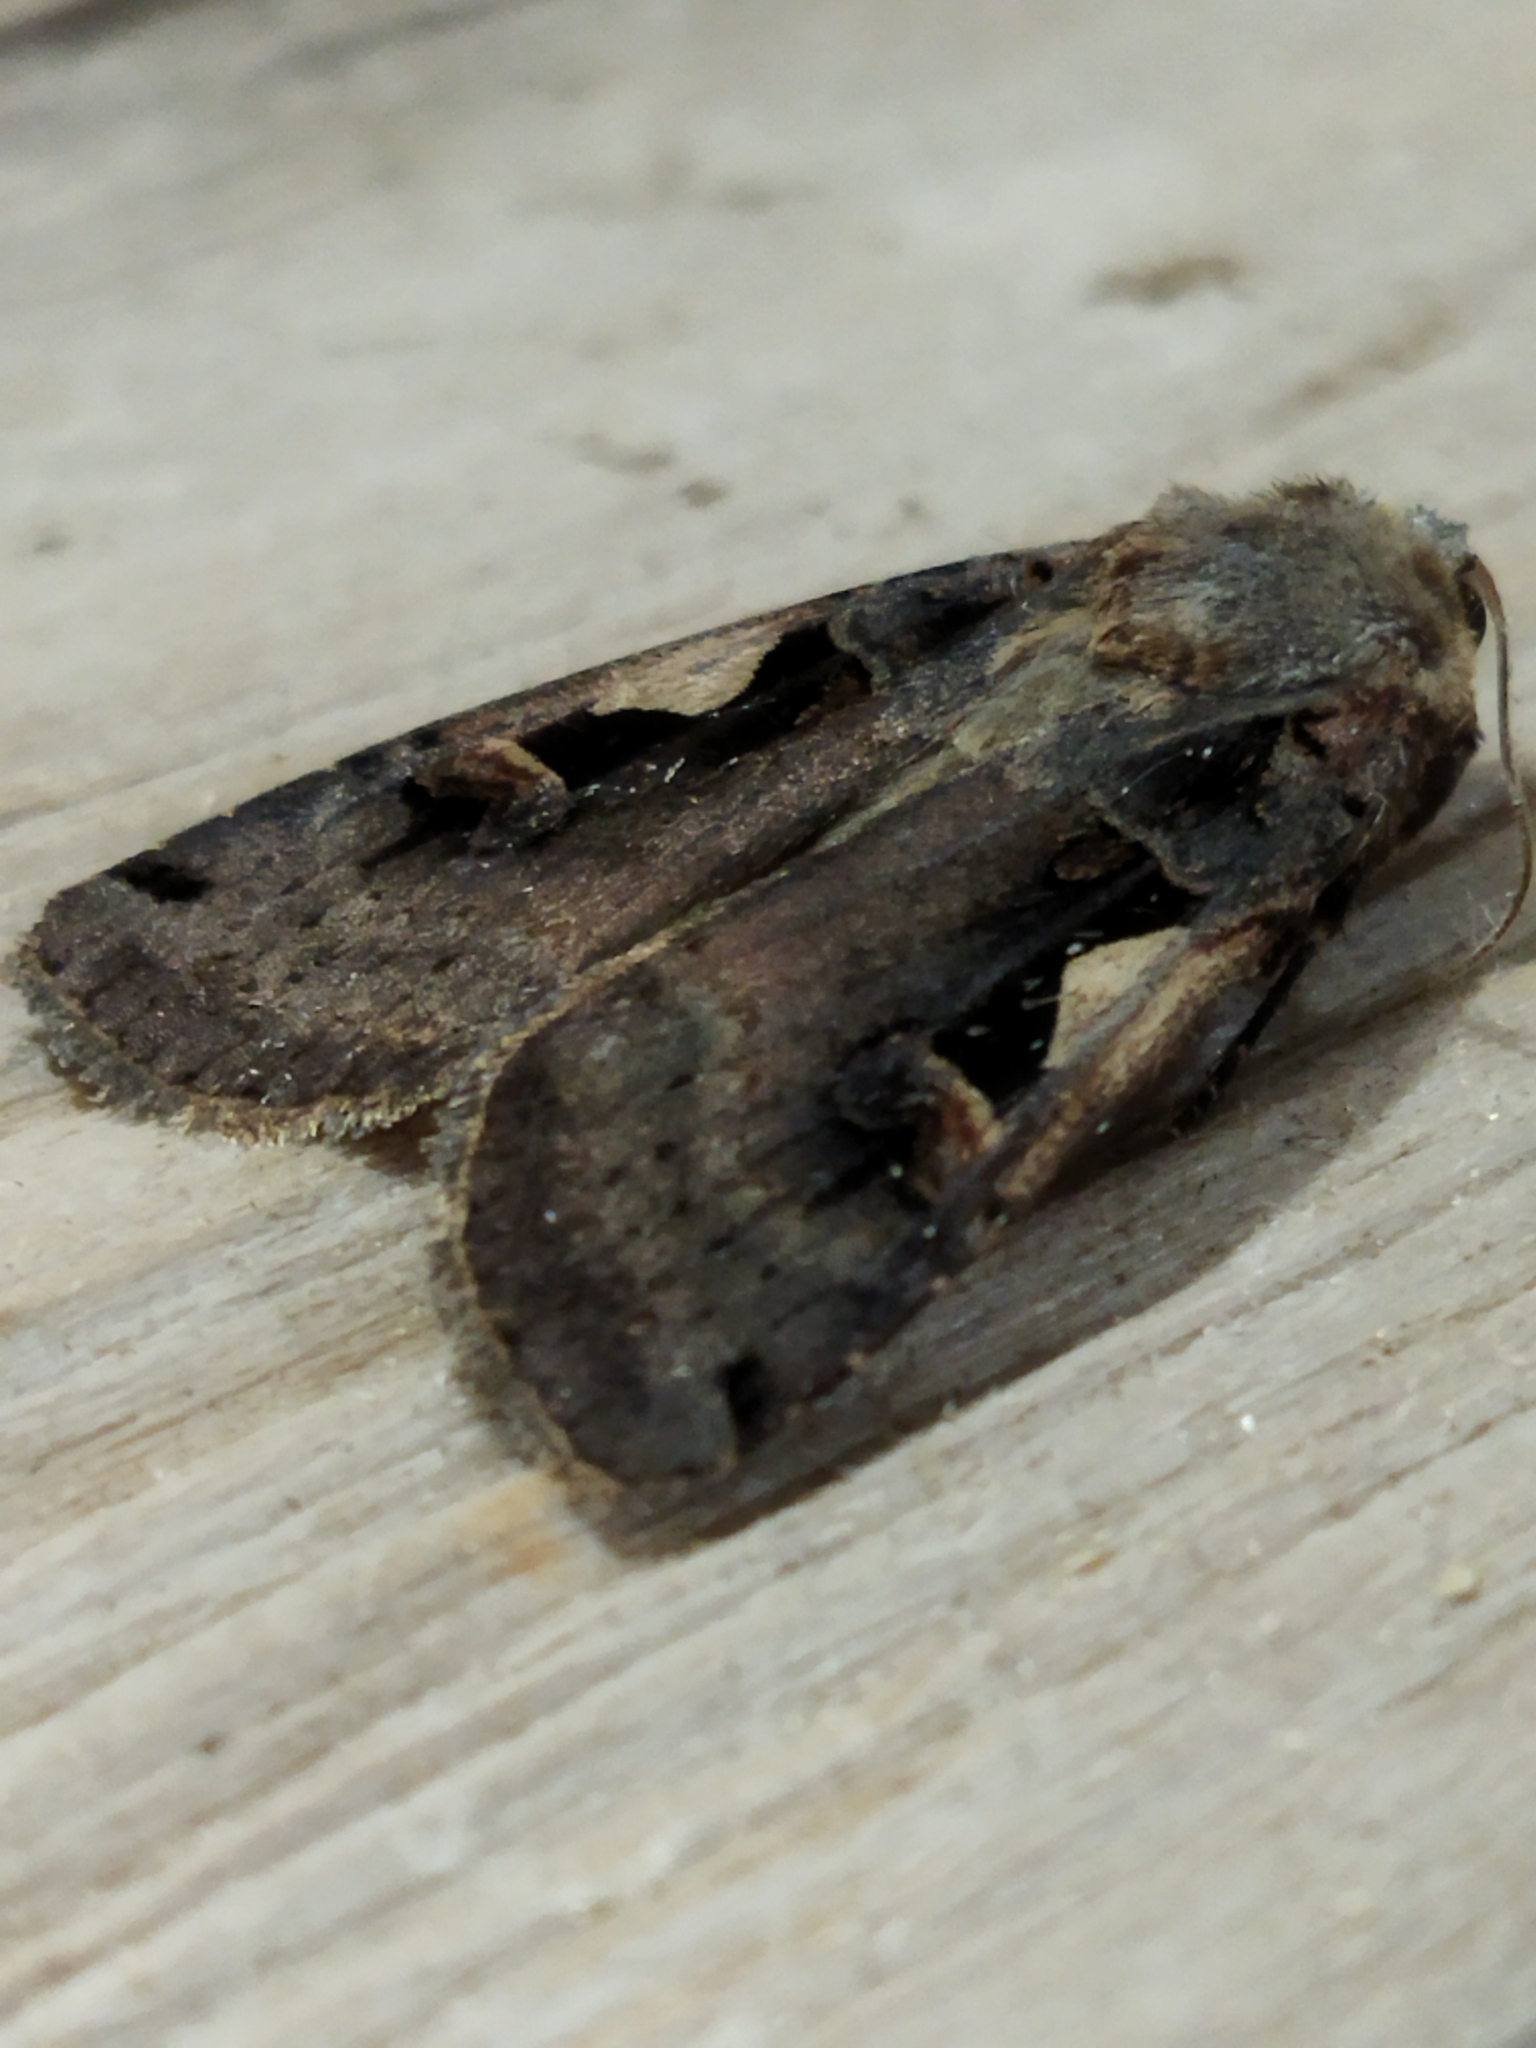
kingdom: Animalia
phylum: Arthropoda
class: Insecta
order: Lepidoptera
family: Noctuidae
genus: Xestia
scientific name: Xestia c-nigrum
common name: Setaceous hebrew character
